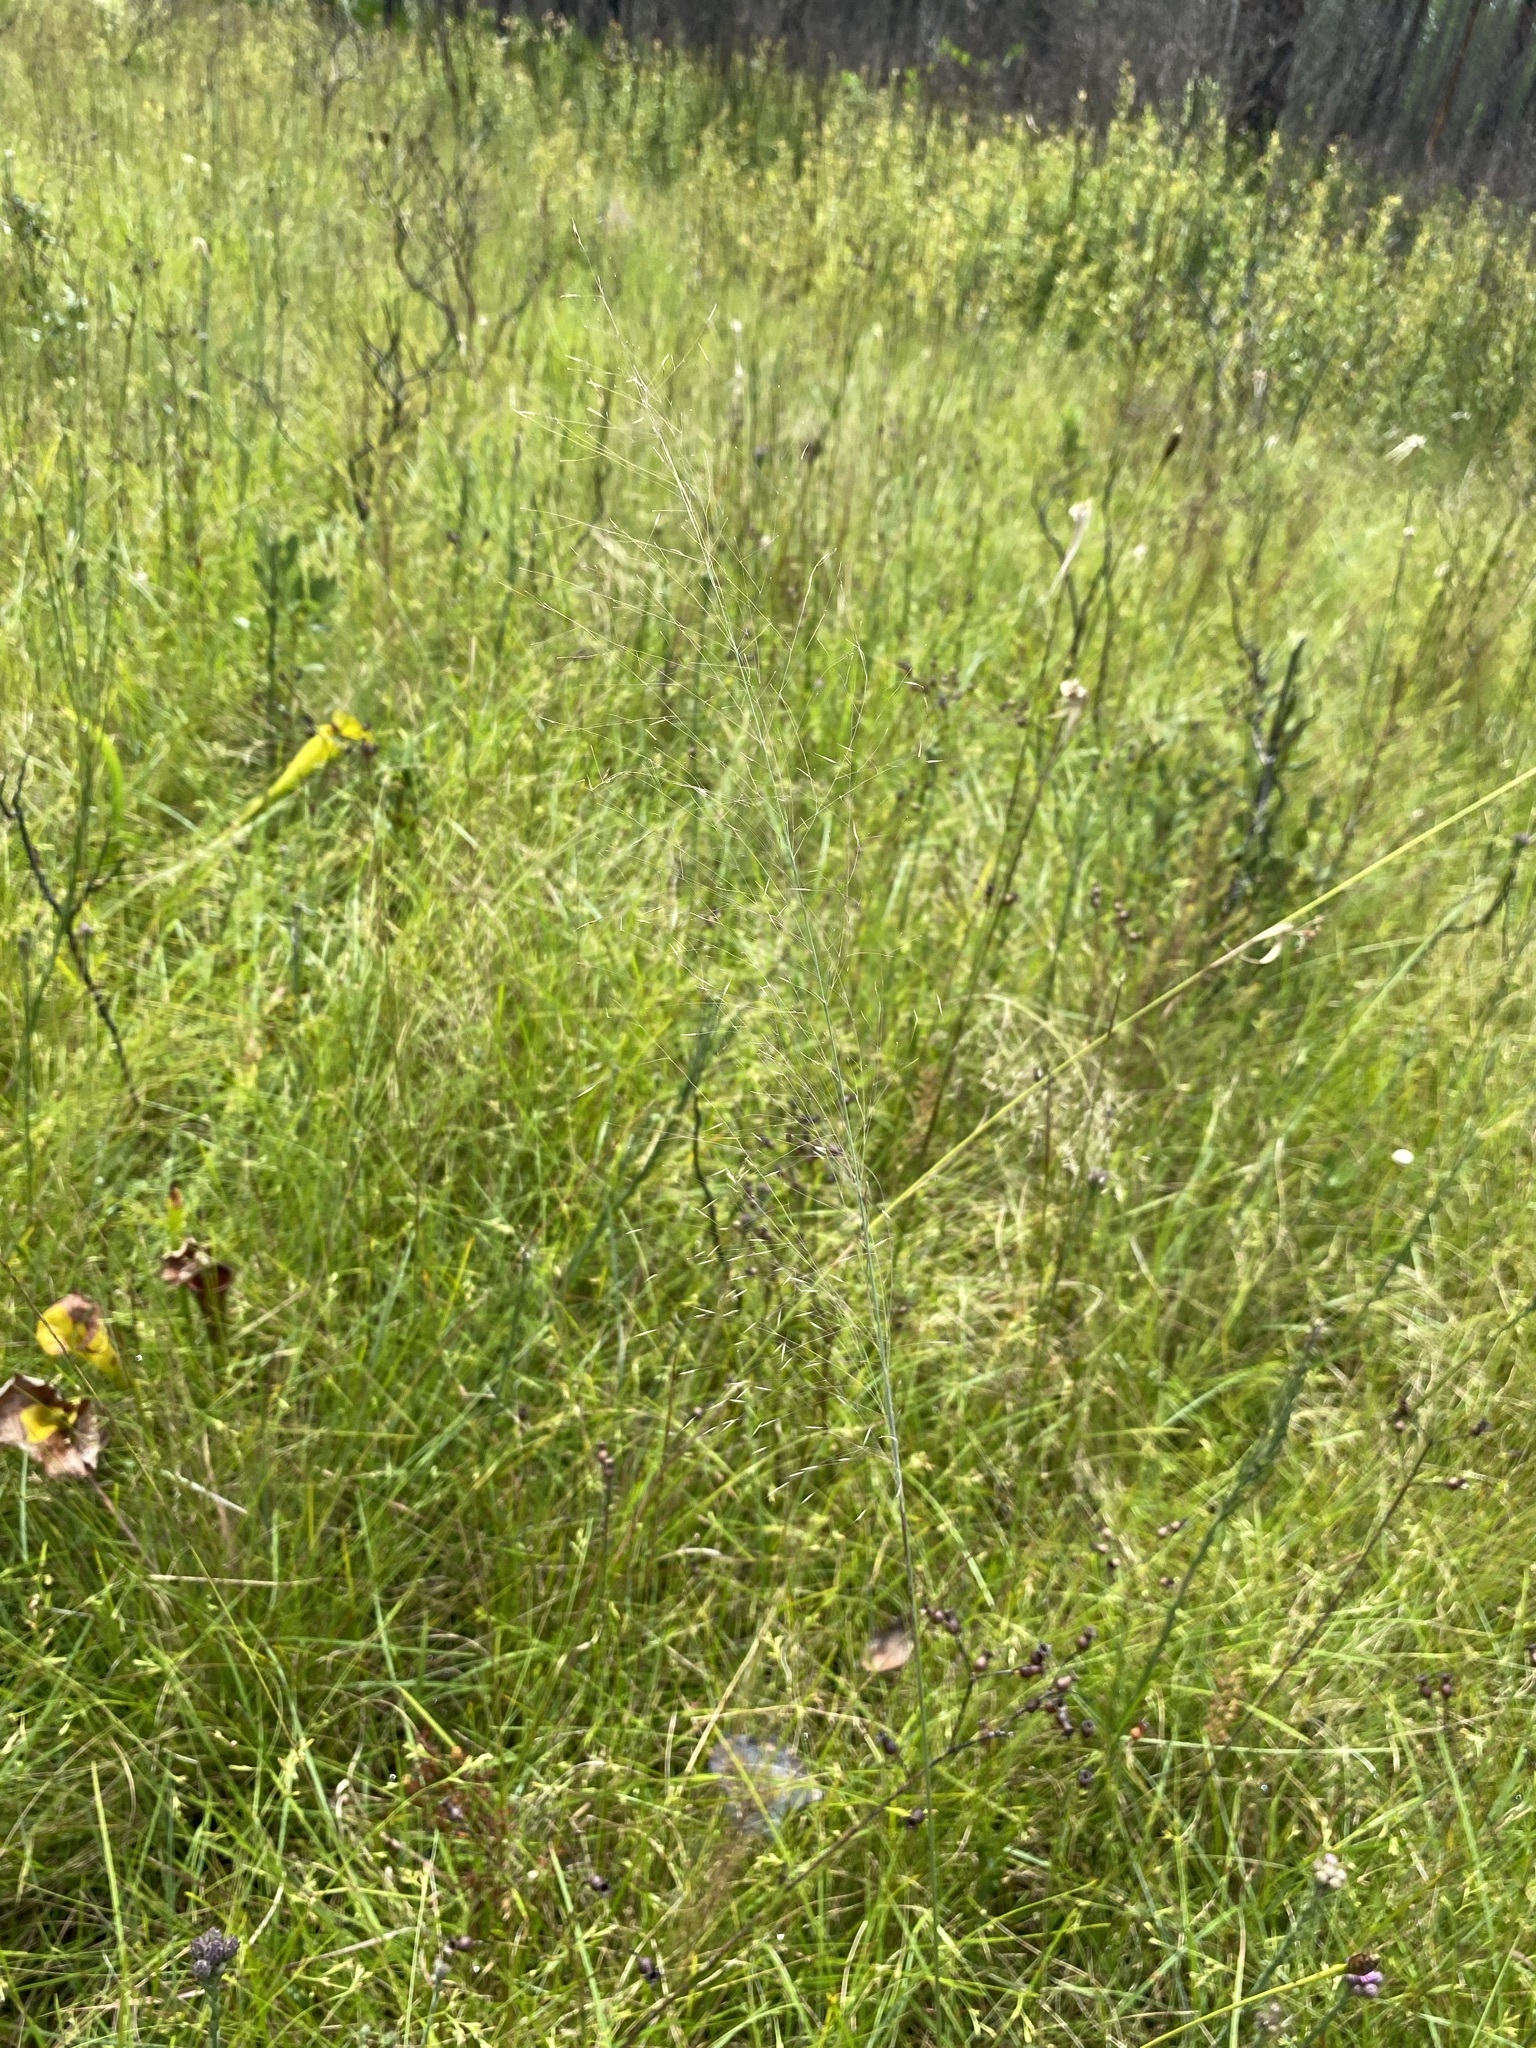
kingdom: Plantae
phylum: Tracheophyta
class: Liliopsida
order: Poales
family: Poaceae
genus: Muhlenbergia
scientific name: Muhlenbergia expansa
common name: Savannah hairgrass
